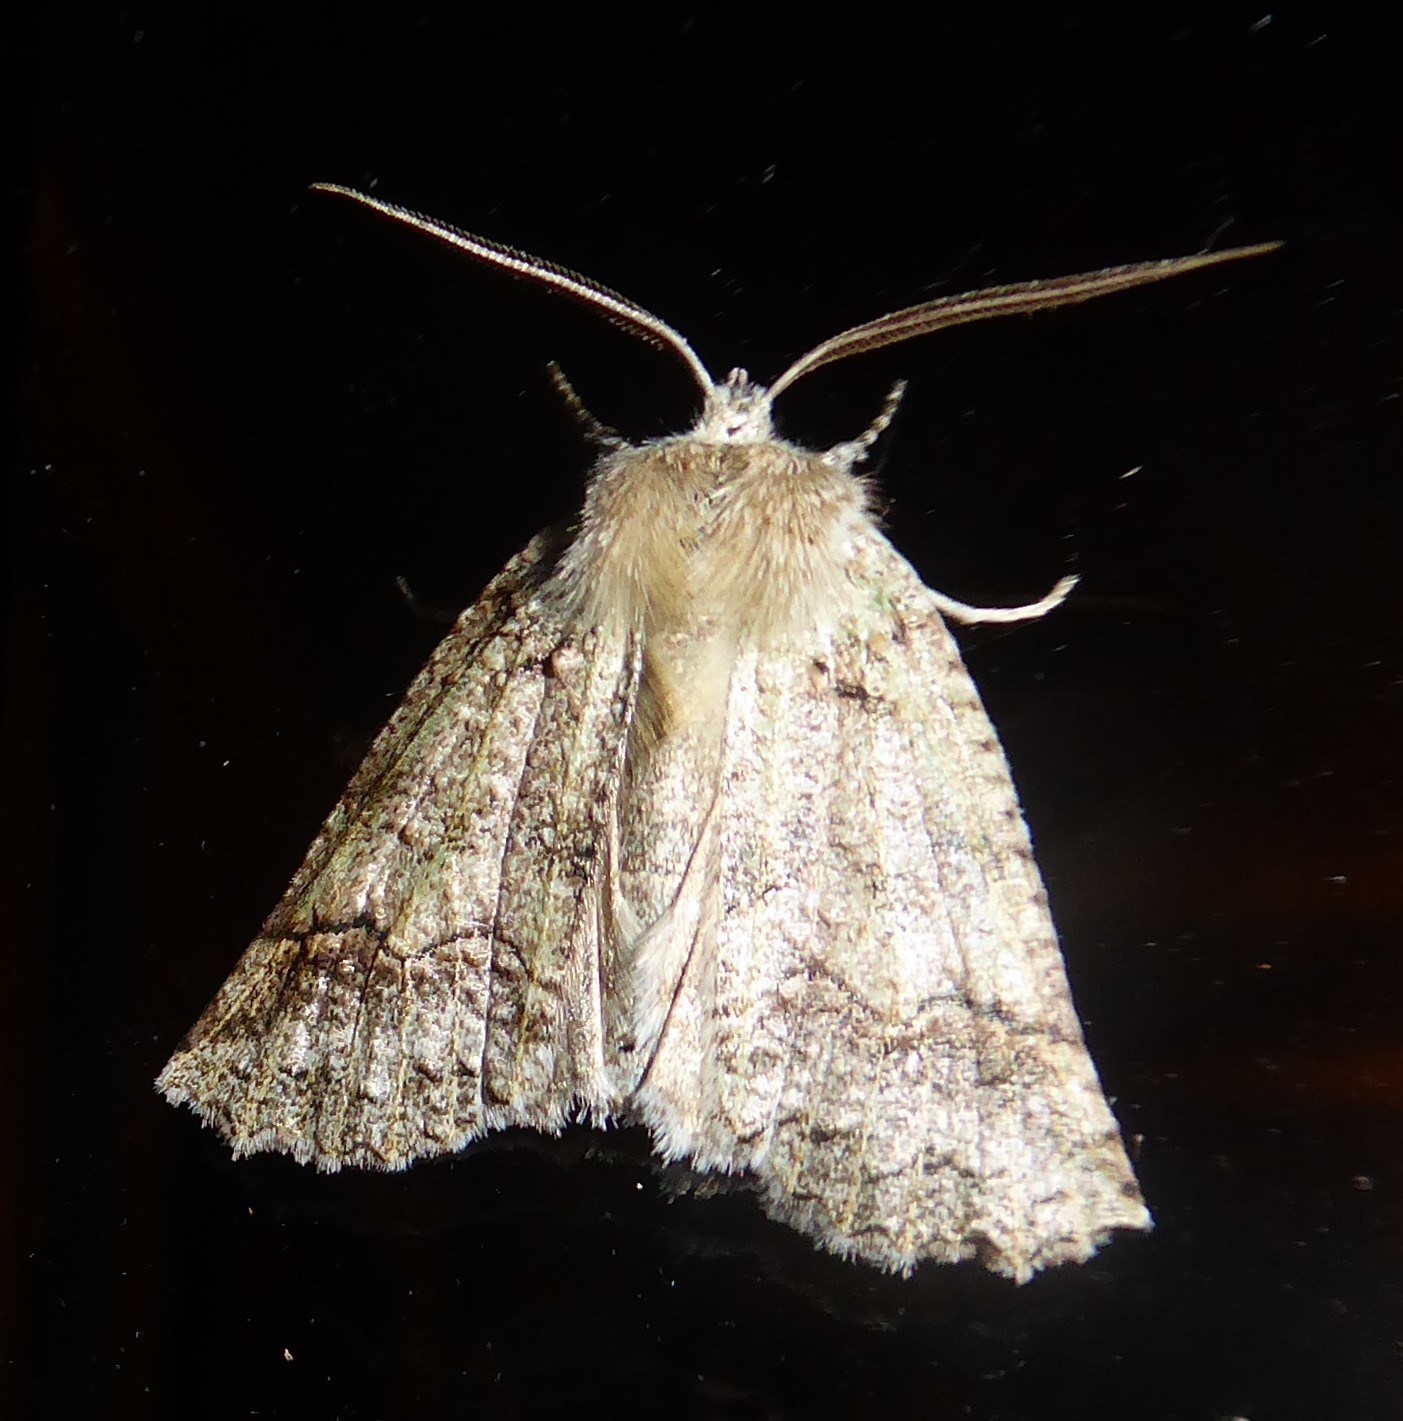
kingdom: Animalia
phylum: Arthropoda
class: Insecta
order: Lepidoptera
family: Geometridae
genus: Declana
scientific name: Declana floccosa
